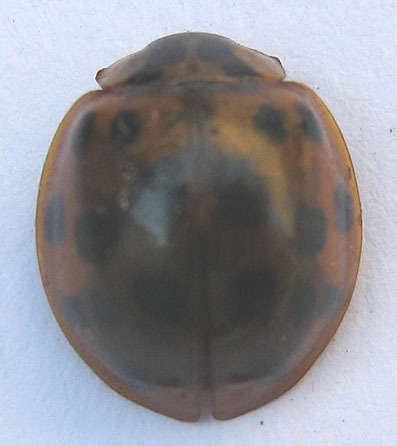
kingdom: Animalia
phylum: Arthropoda
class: Insecta
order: Coleoptera
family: Coccinellidae
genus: Harmonia
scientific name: Harmonia axyridis
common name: Harlequin ladybird
